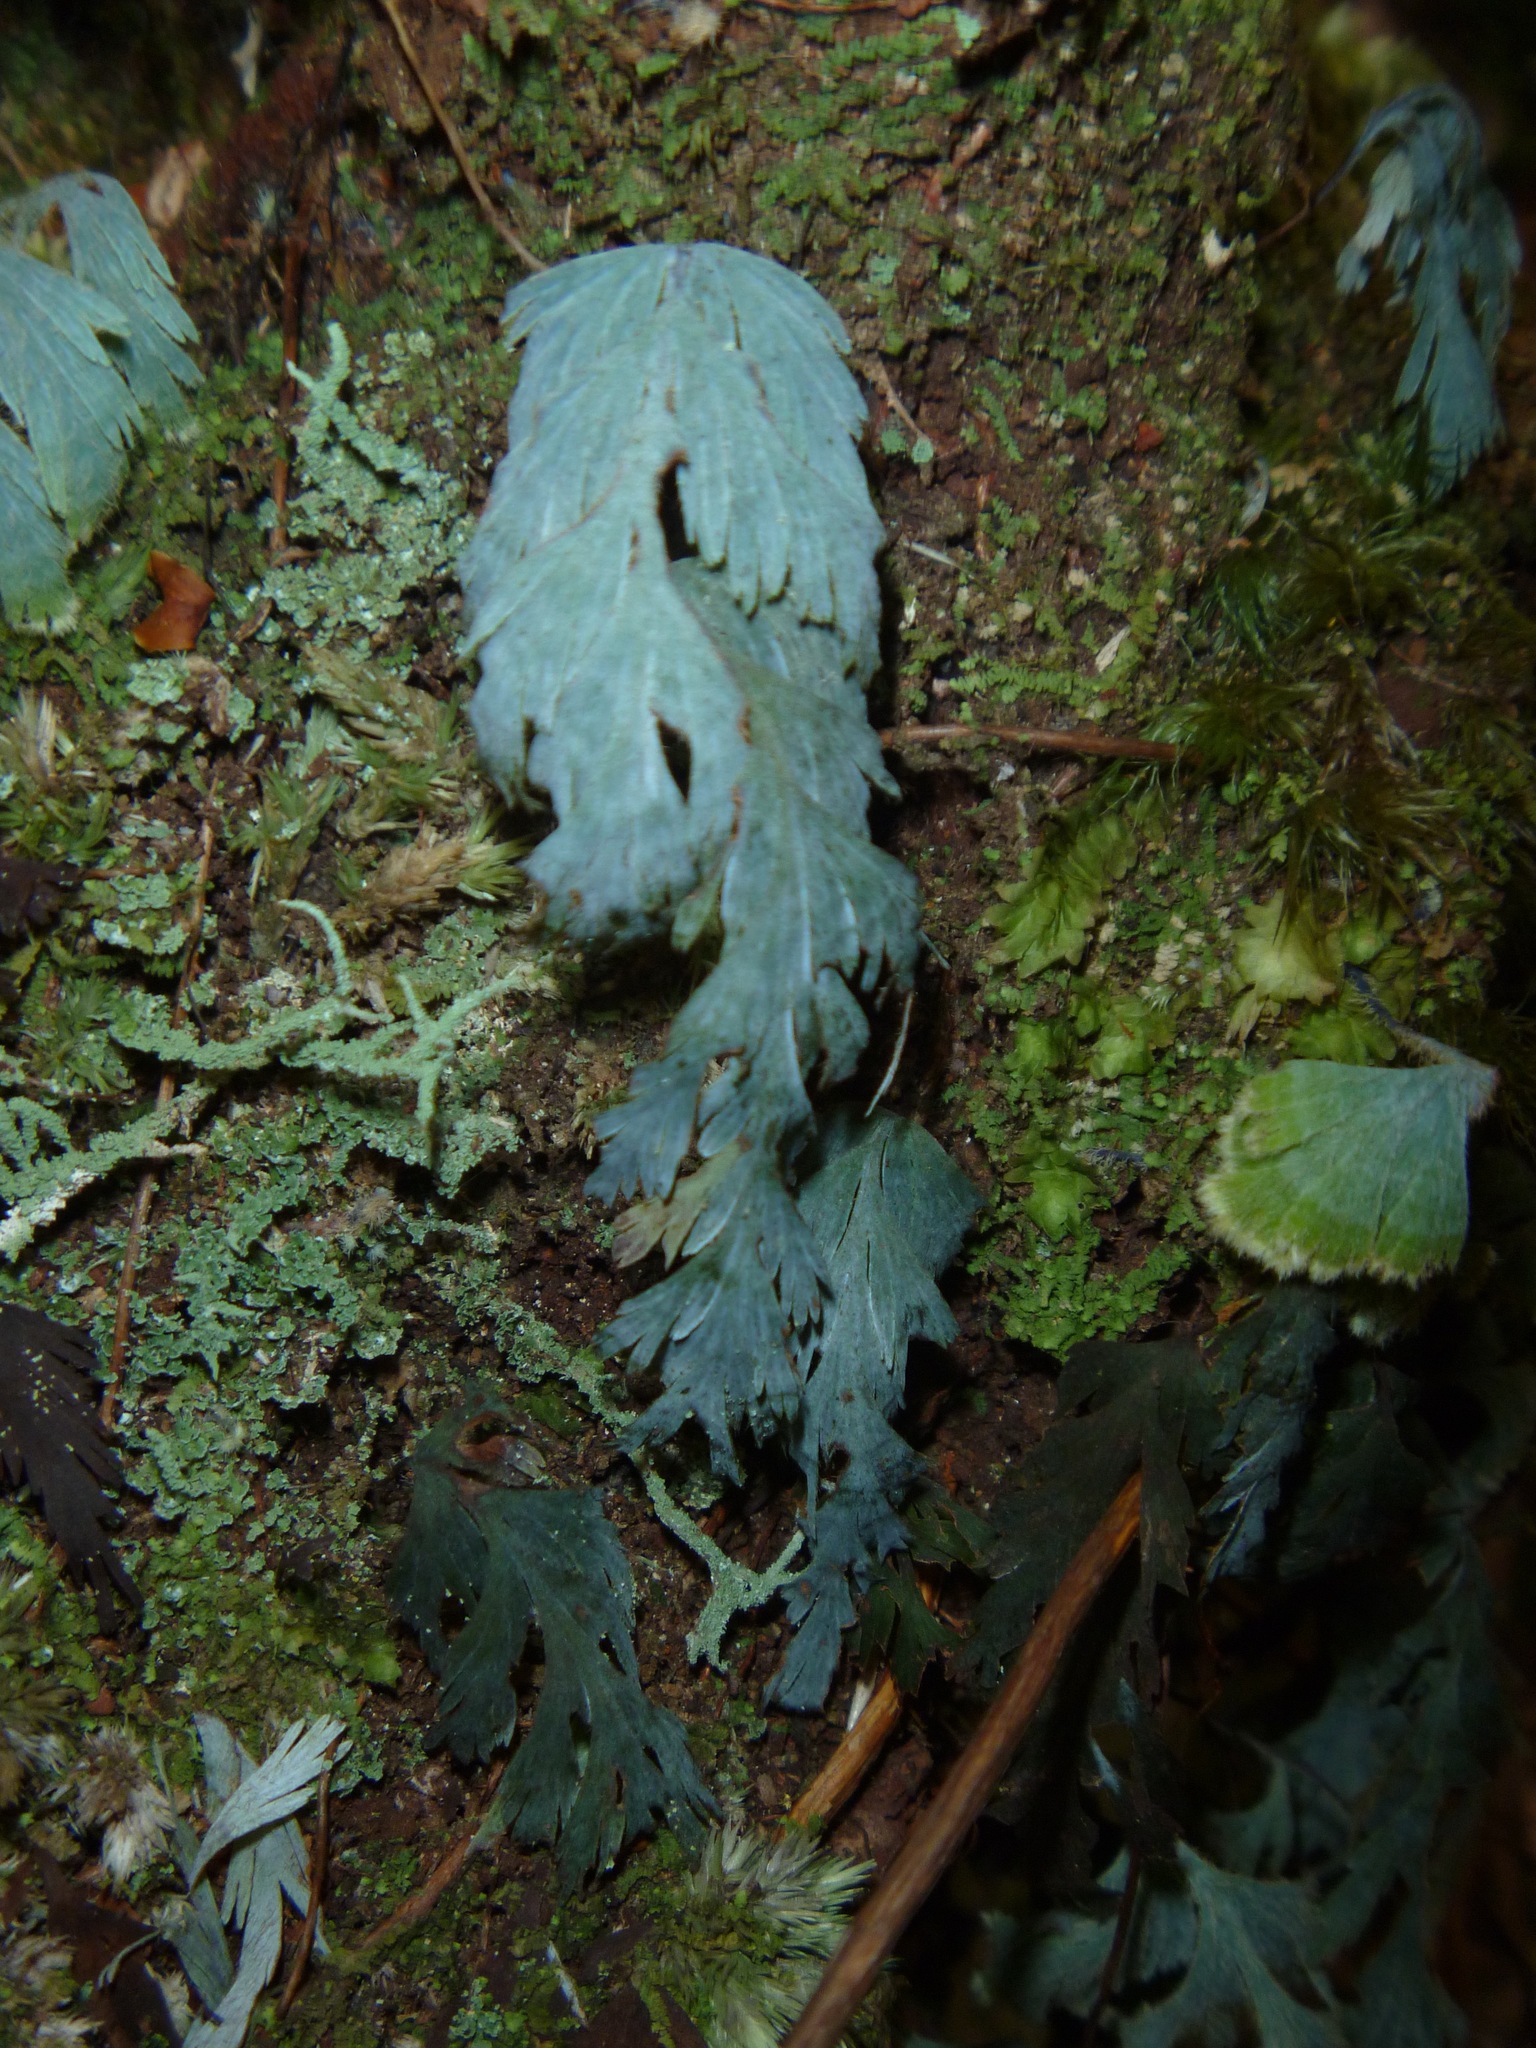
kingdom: Plantae
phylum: Tracheophyta
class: Polypodiopsida
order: Hymenophyllales
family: Hymenophyllaceae
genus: Hymenophyllum
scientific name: Hymenophyllum pallidum
